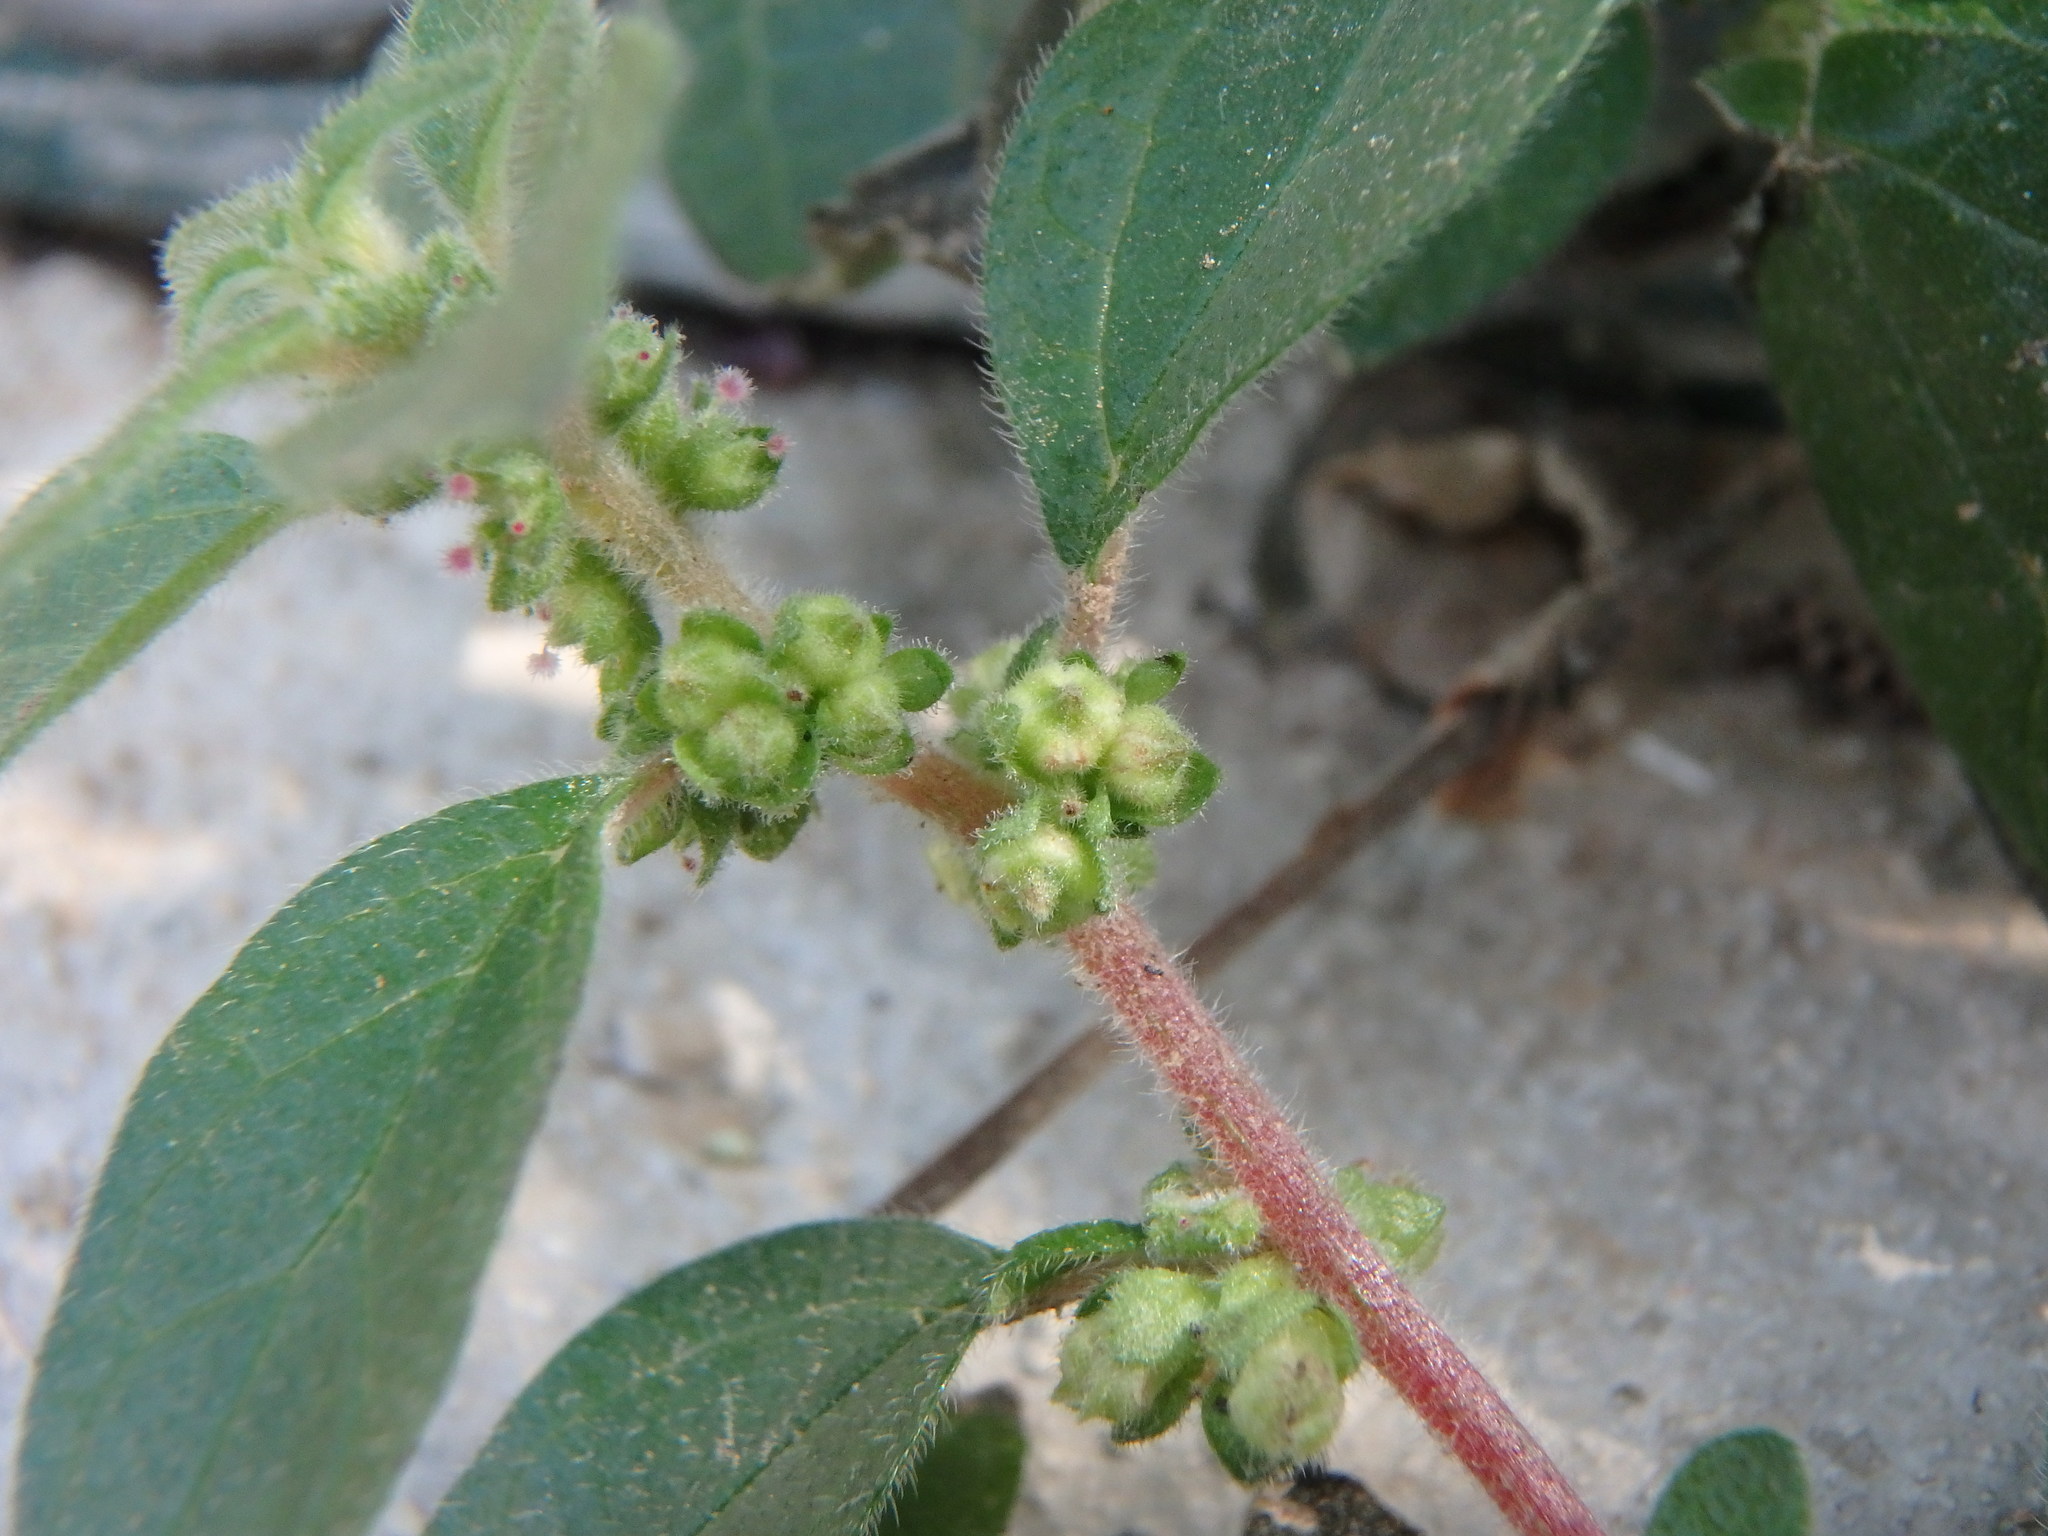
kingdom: Plantae
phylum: Tracheophyta
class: Magnoliopsida
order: Rosales
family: Urticaceae
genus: Parietaria
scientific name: Parietaria judaica
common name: Pellitory-of-the-wall
